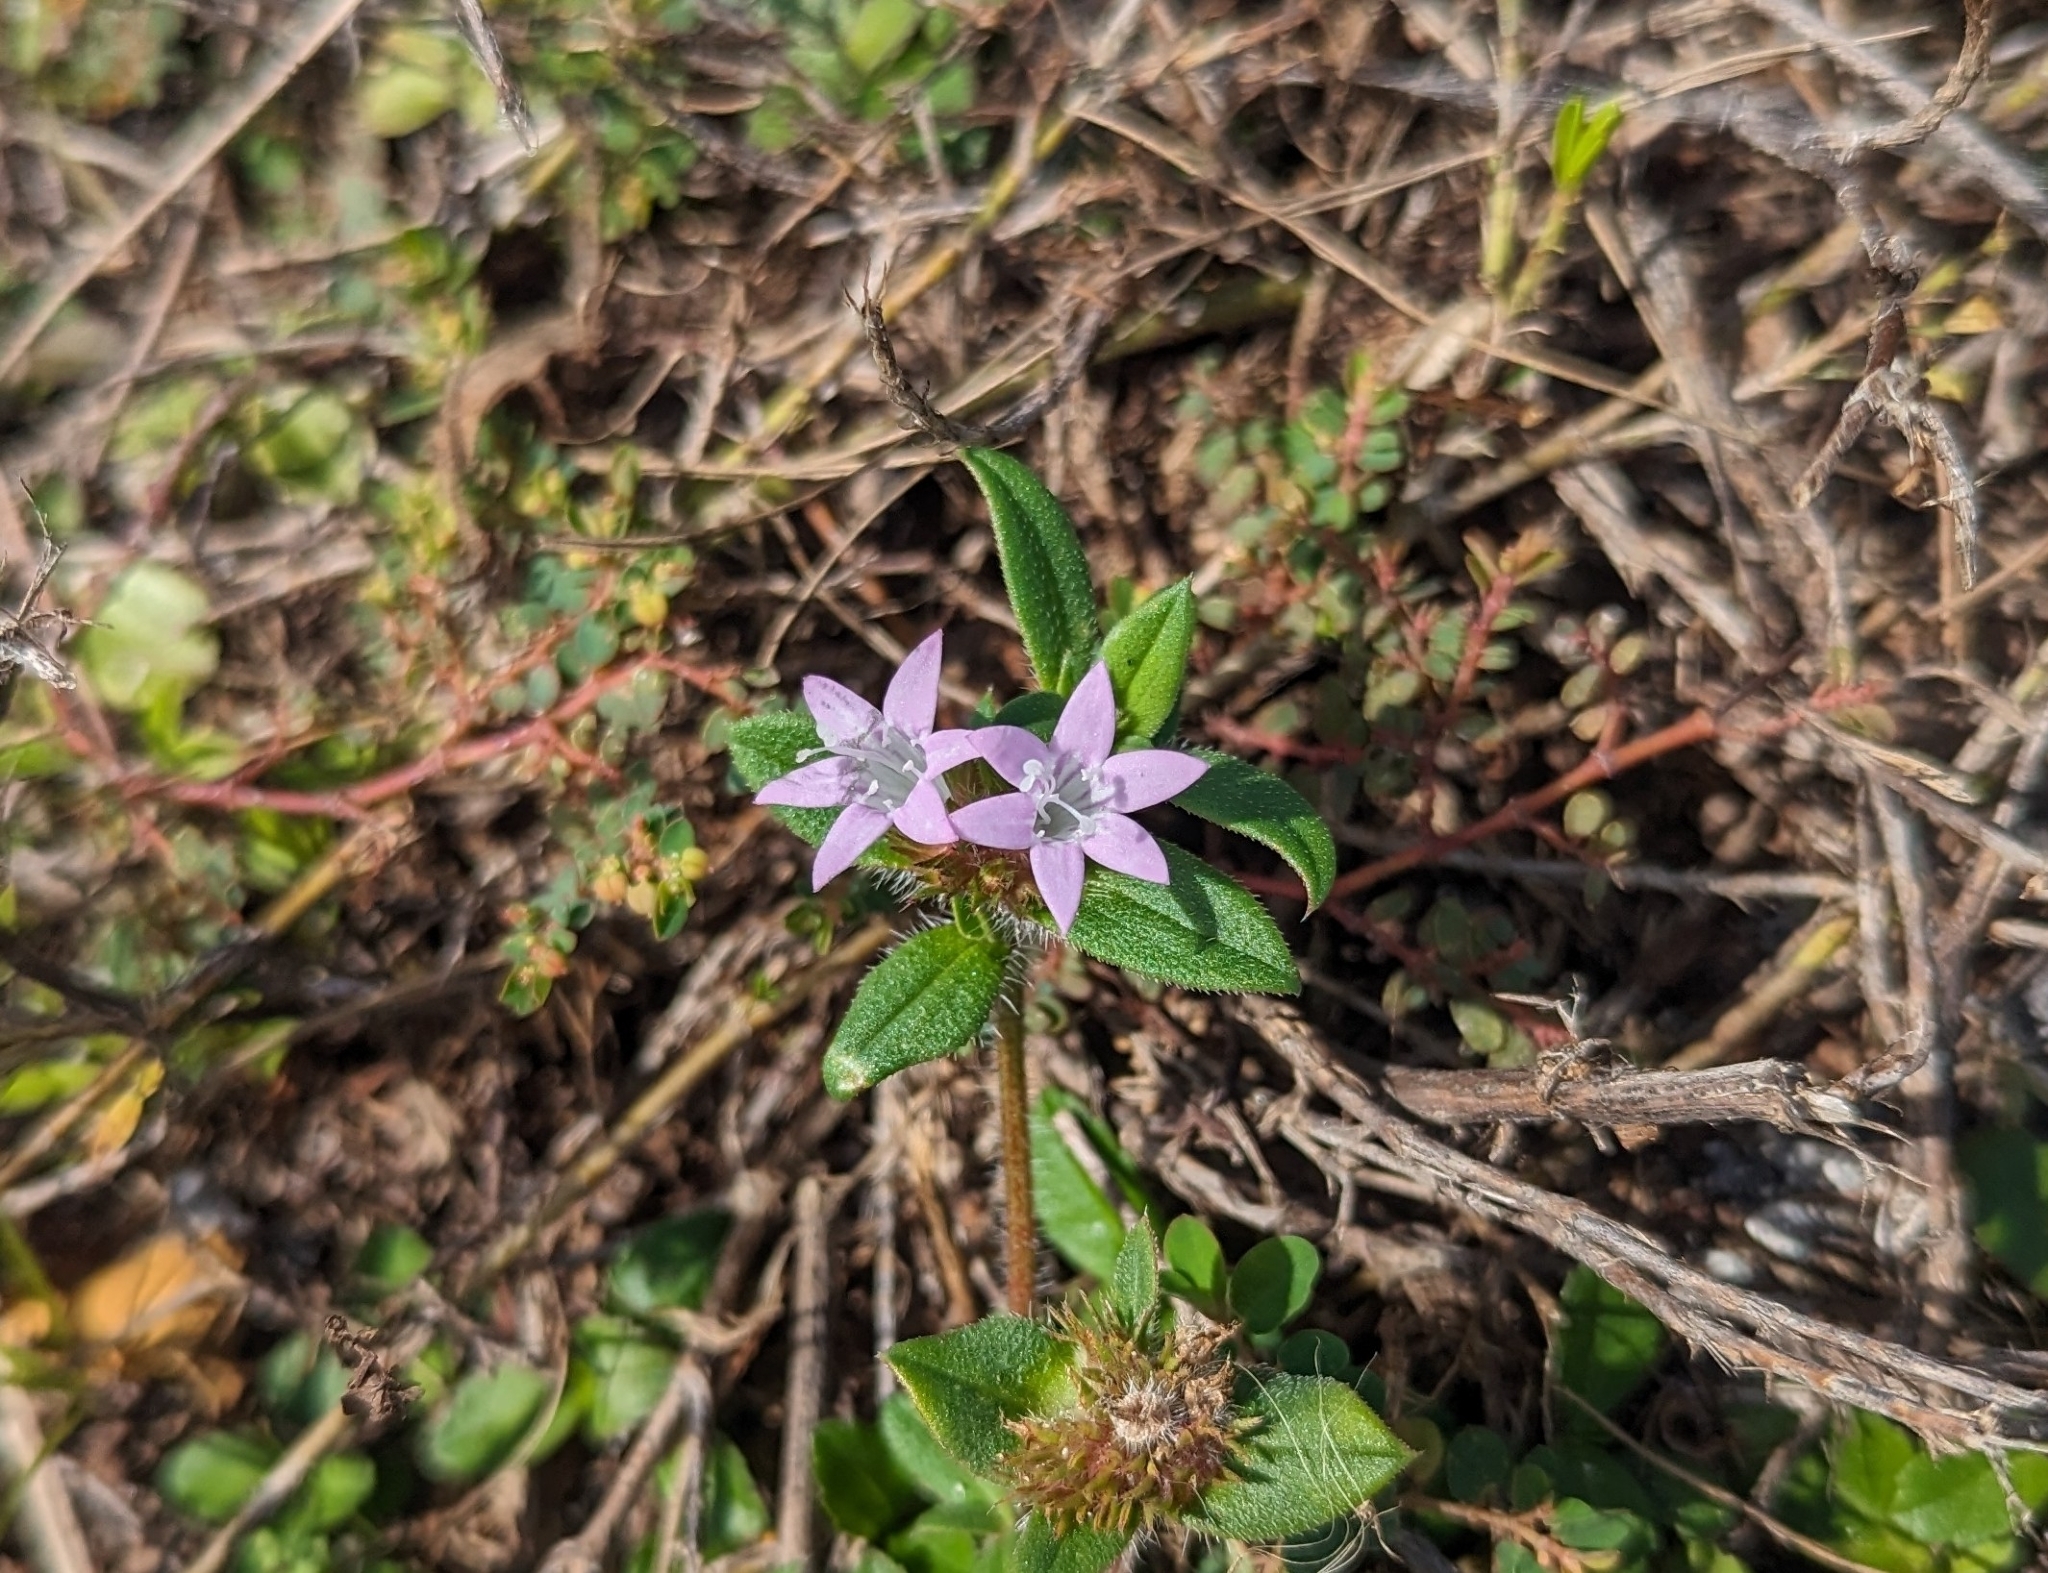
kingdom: Plantae
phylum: Tracheophyta
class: Magnoliopsida
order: Gentianales
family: Rubiaceae
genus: Richardia
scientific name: Richardia grandiflora
